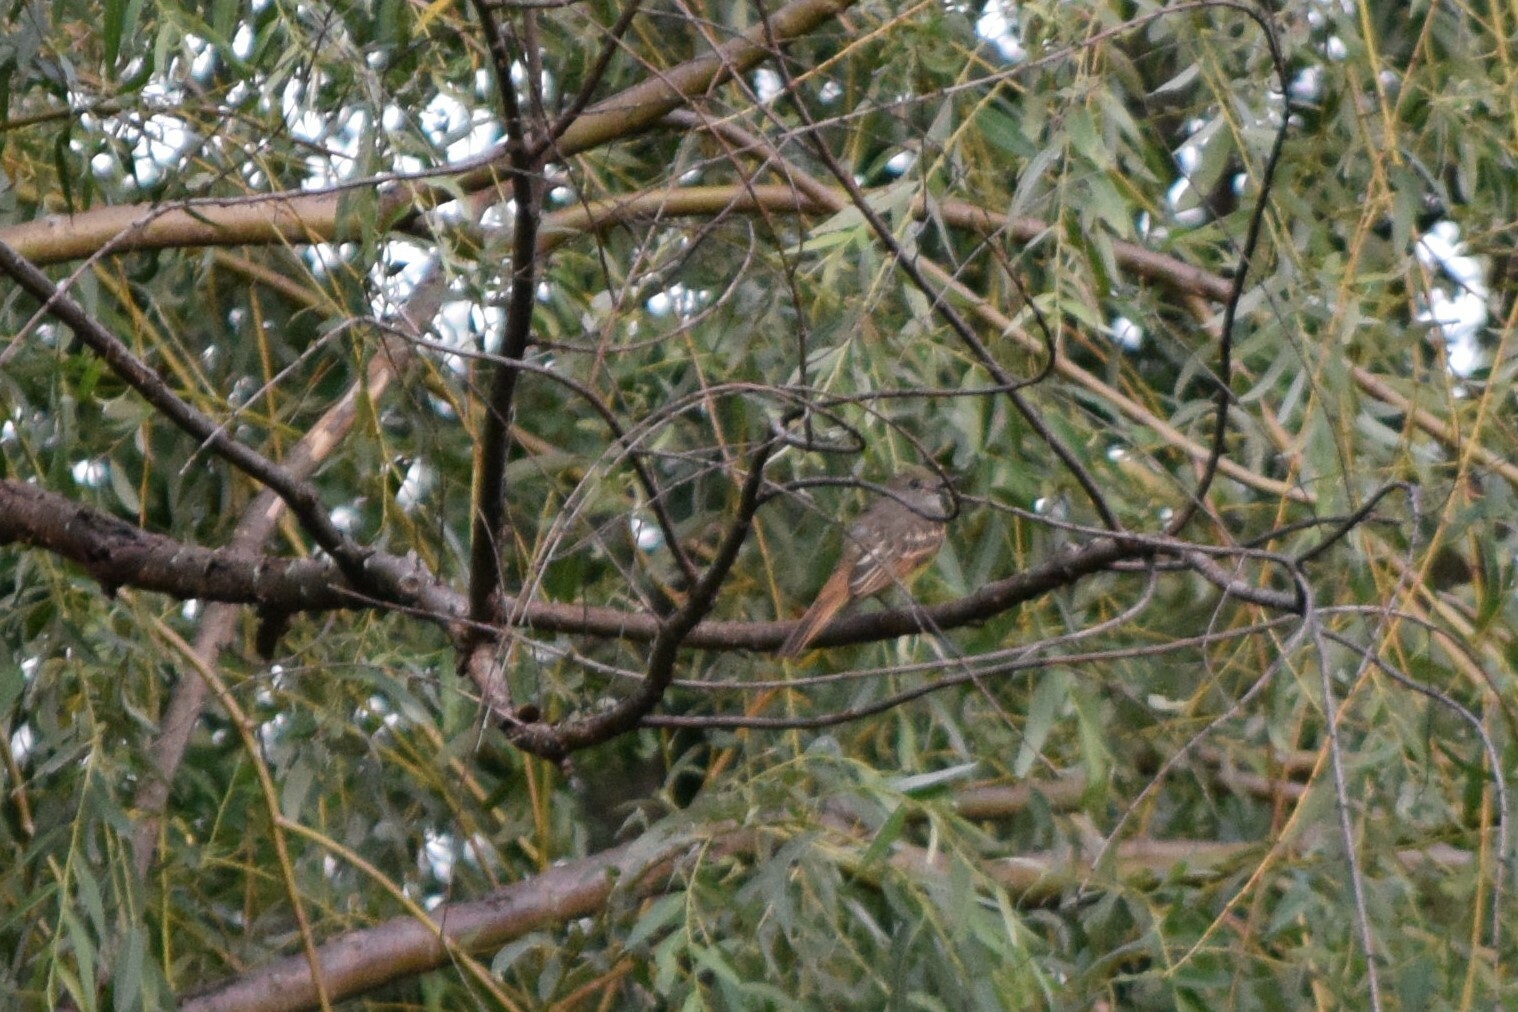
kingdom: Animalia
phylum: Chordata
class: Aves
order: Passeriformes
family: Tyrannidae
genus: Myiarchus
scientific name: Myiarchus crinitus
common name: Great crested flycatcher
